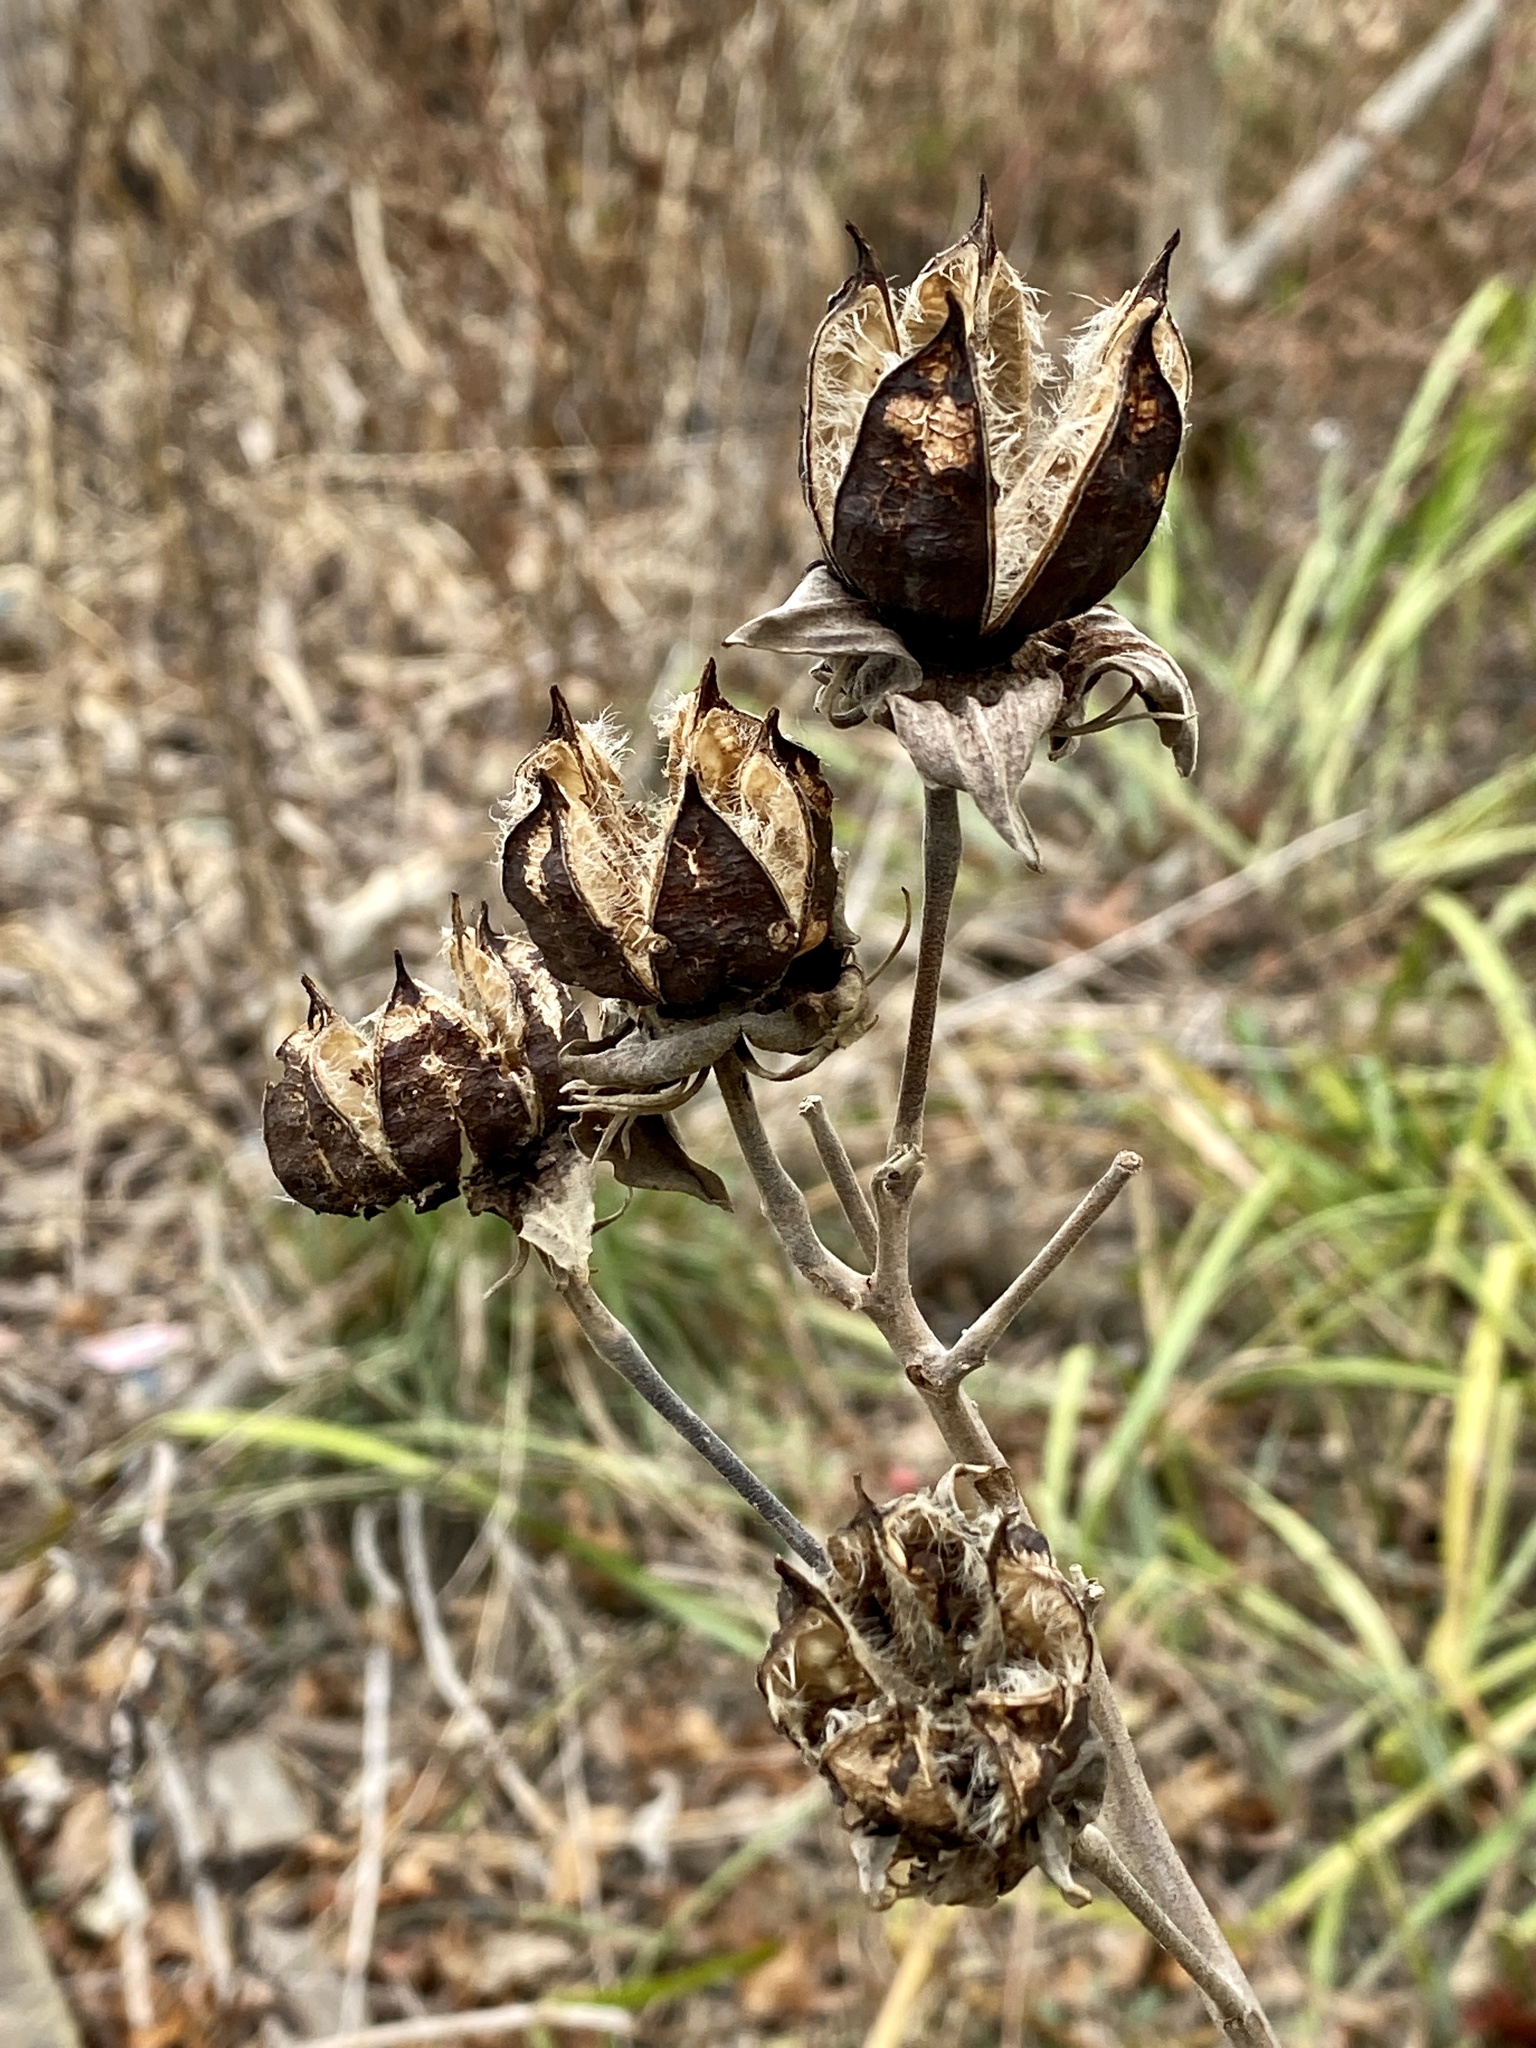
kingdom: Plantae
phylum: Tracheophyta
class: Magnoliopsida
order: Malvales
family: Malvaceae
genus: Hibiscus
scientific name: Hibiscus moscheutos
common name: Common rose-mallow
